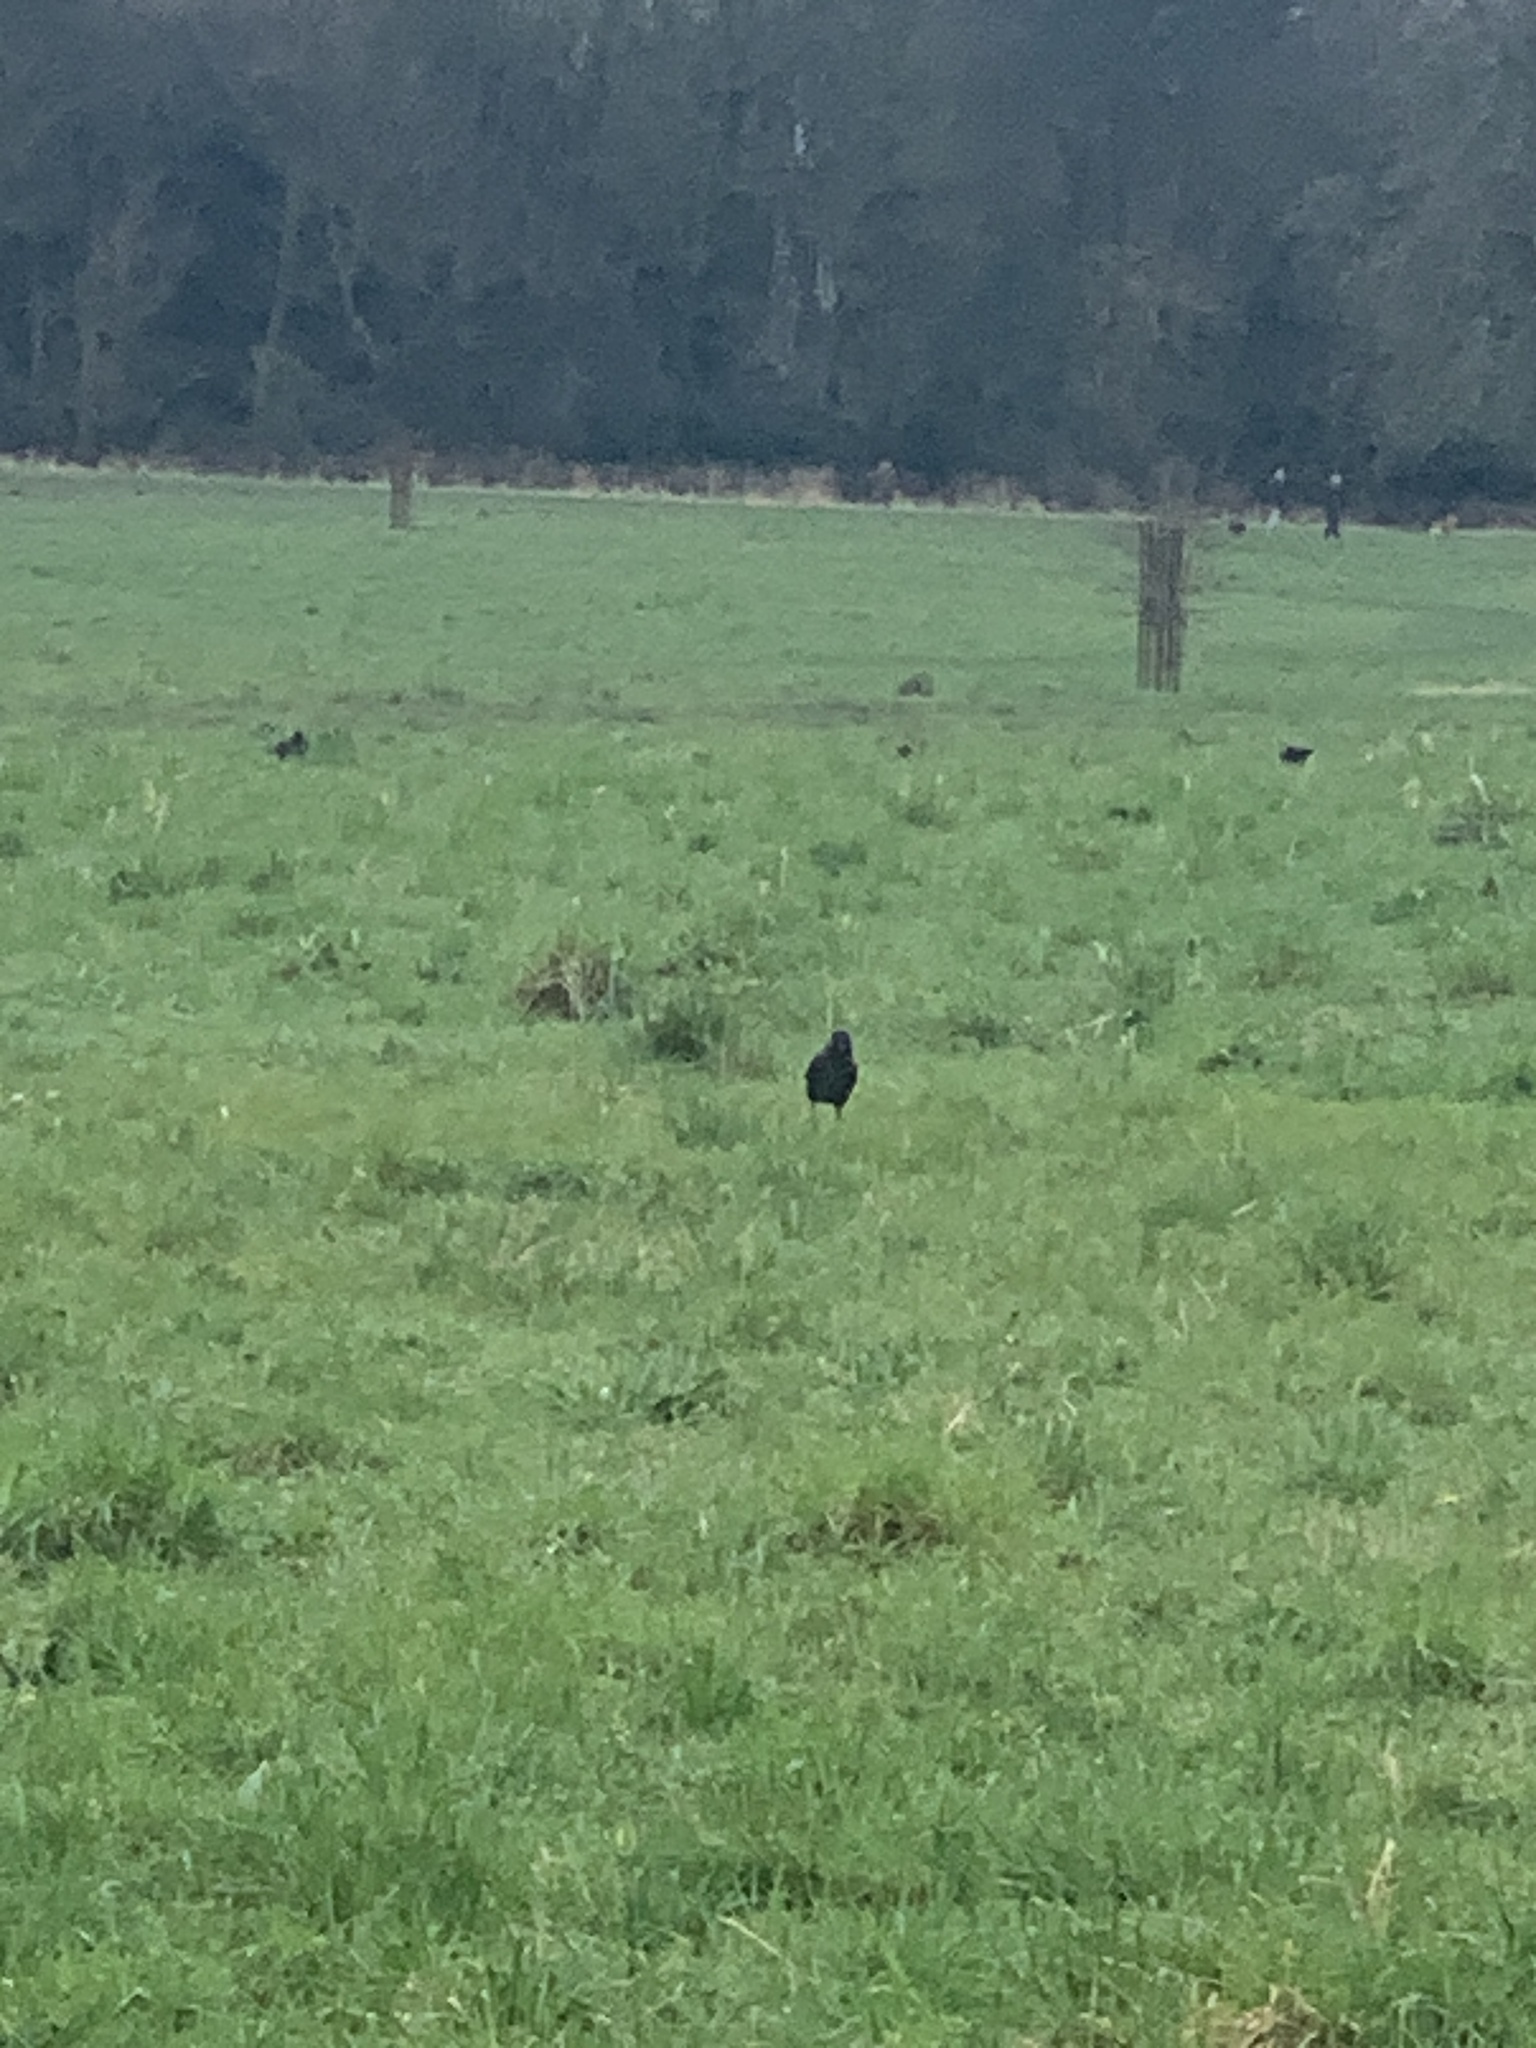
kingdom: Animalia
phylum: Chordata
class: Aves
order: Passeriformes
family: Corvidae
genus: Coloeus
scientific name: Coloeus monedula
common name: Western jackdaw
